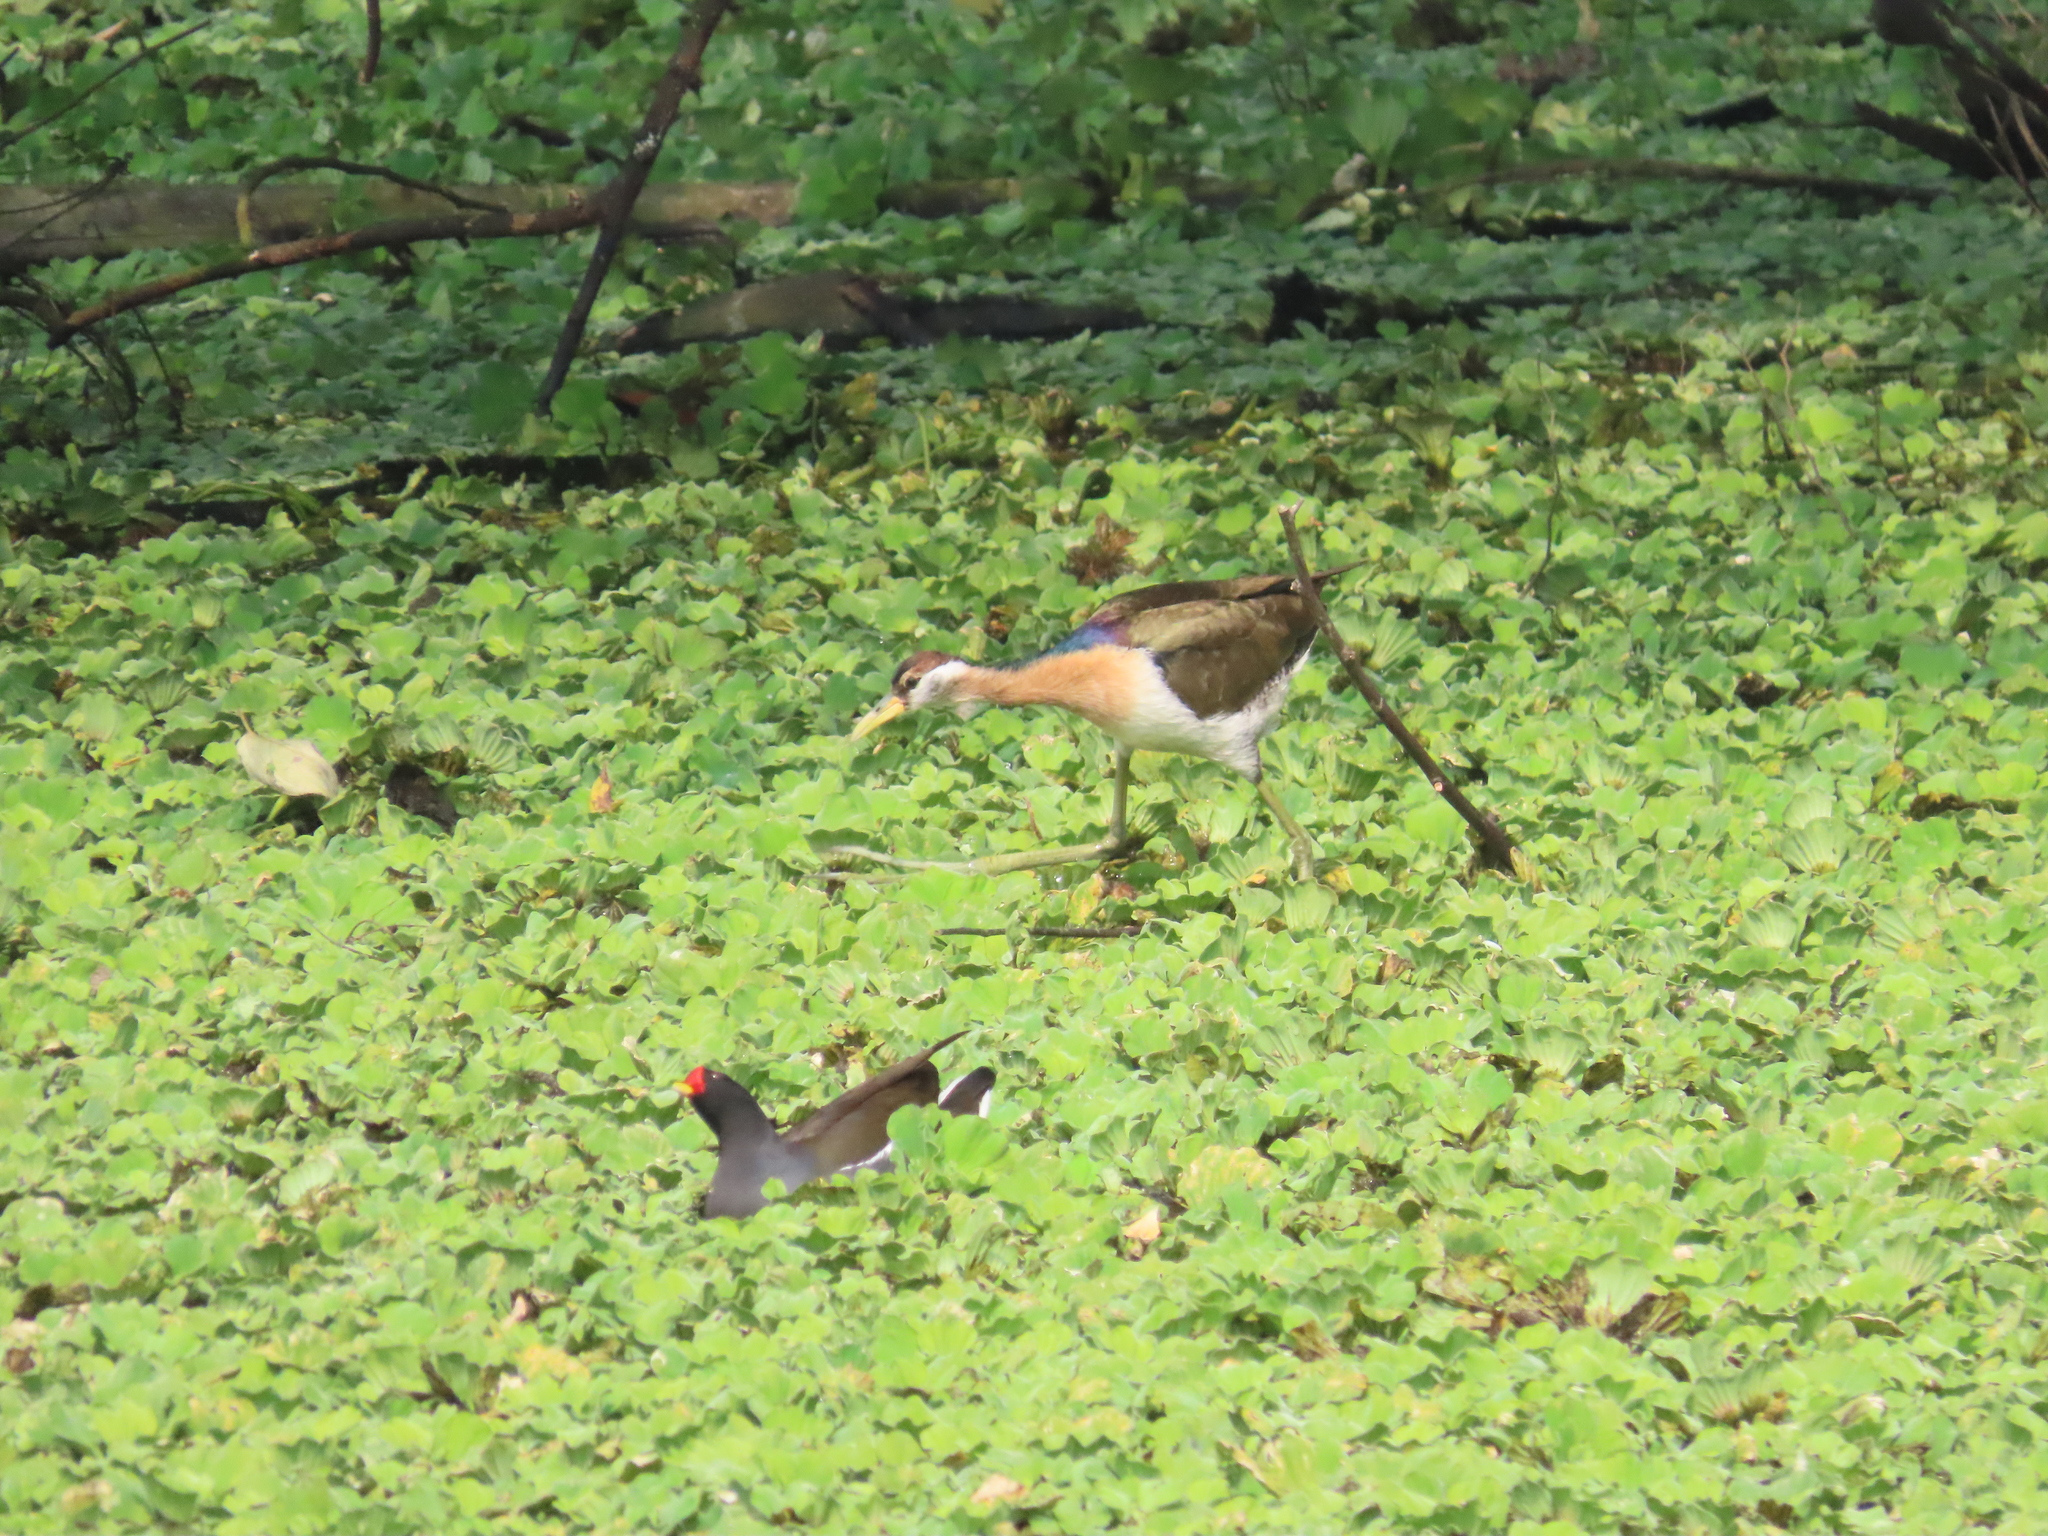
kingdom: Animalia
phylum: Chordata
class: Aves
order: Charadriiformes
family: Jacanidae
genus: Metopidius
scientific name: Metopidius indicus
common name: Bronze-winged jacana
